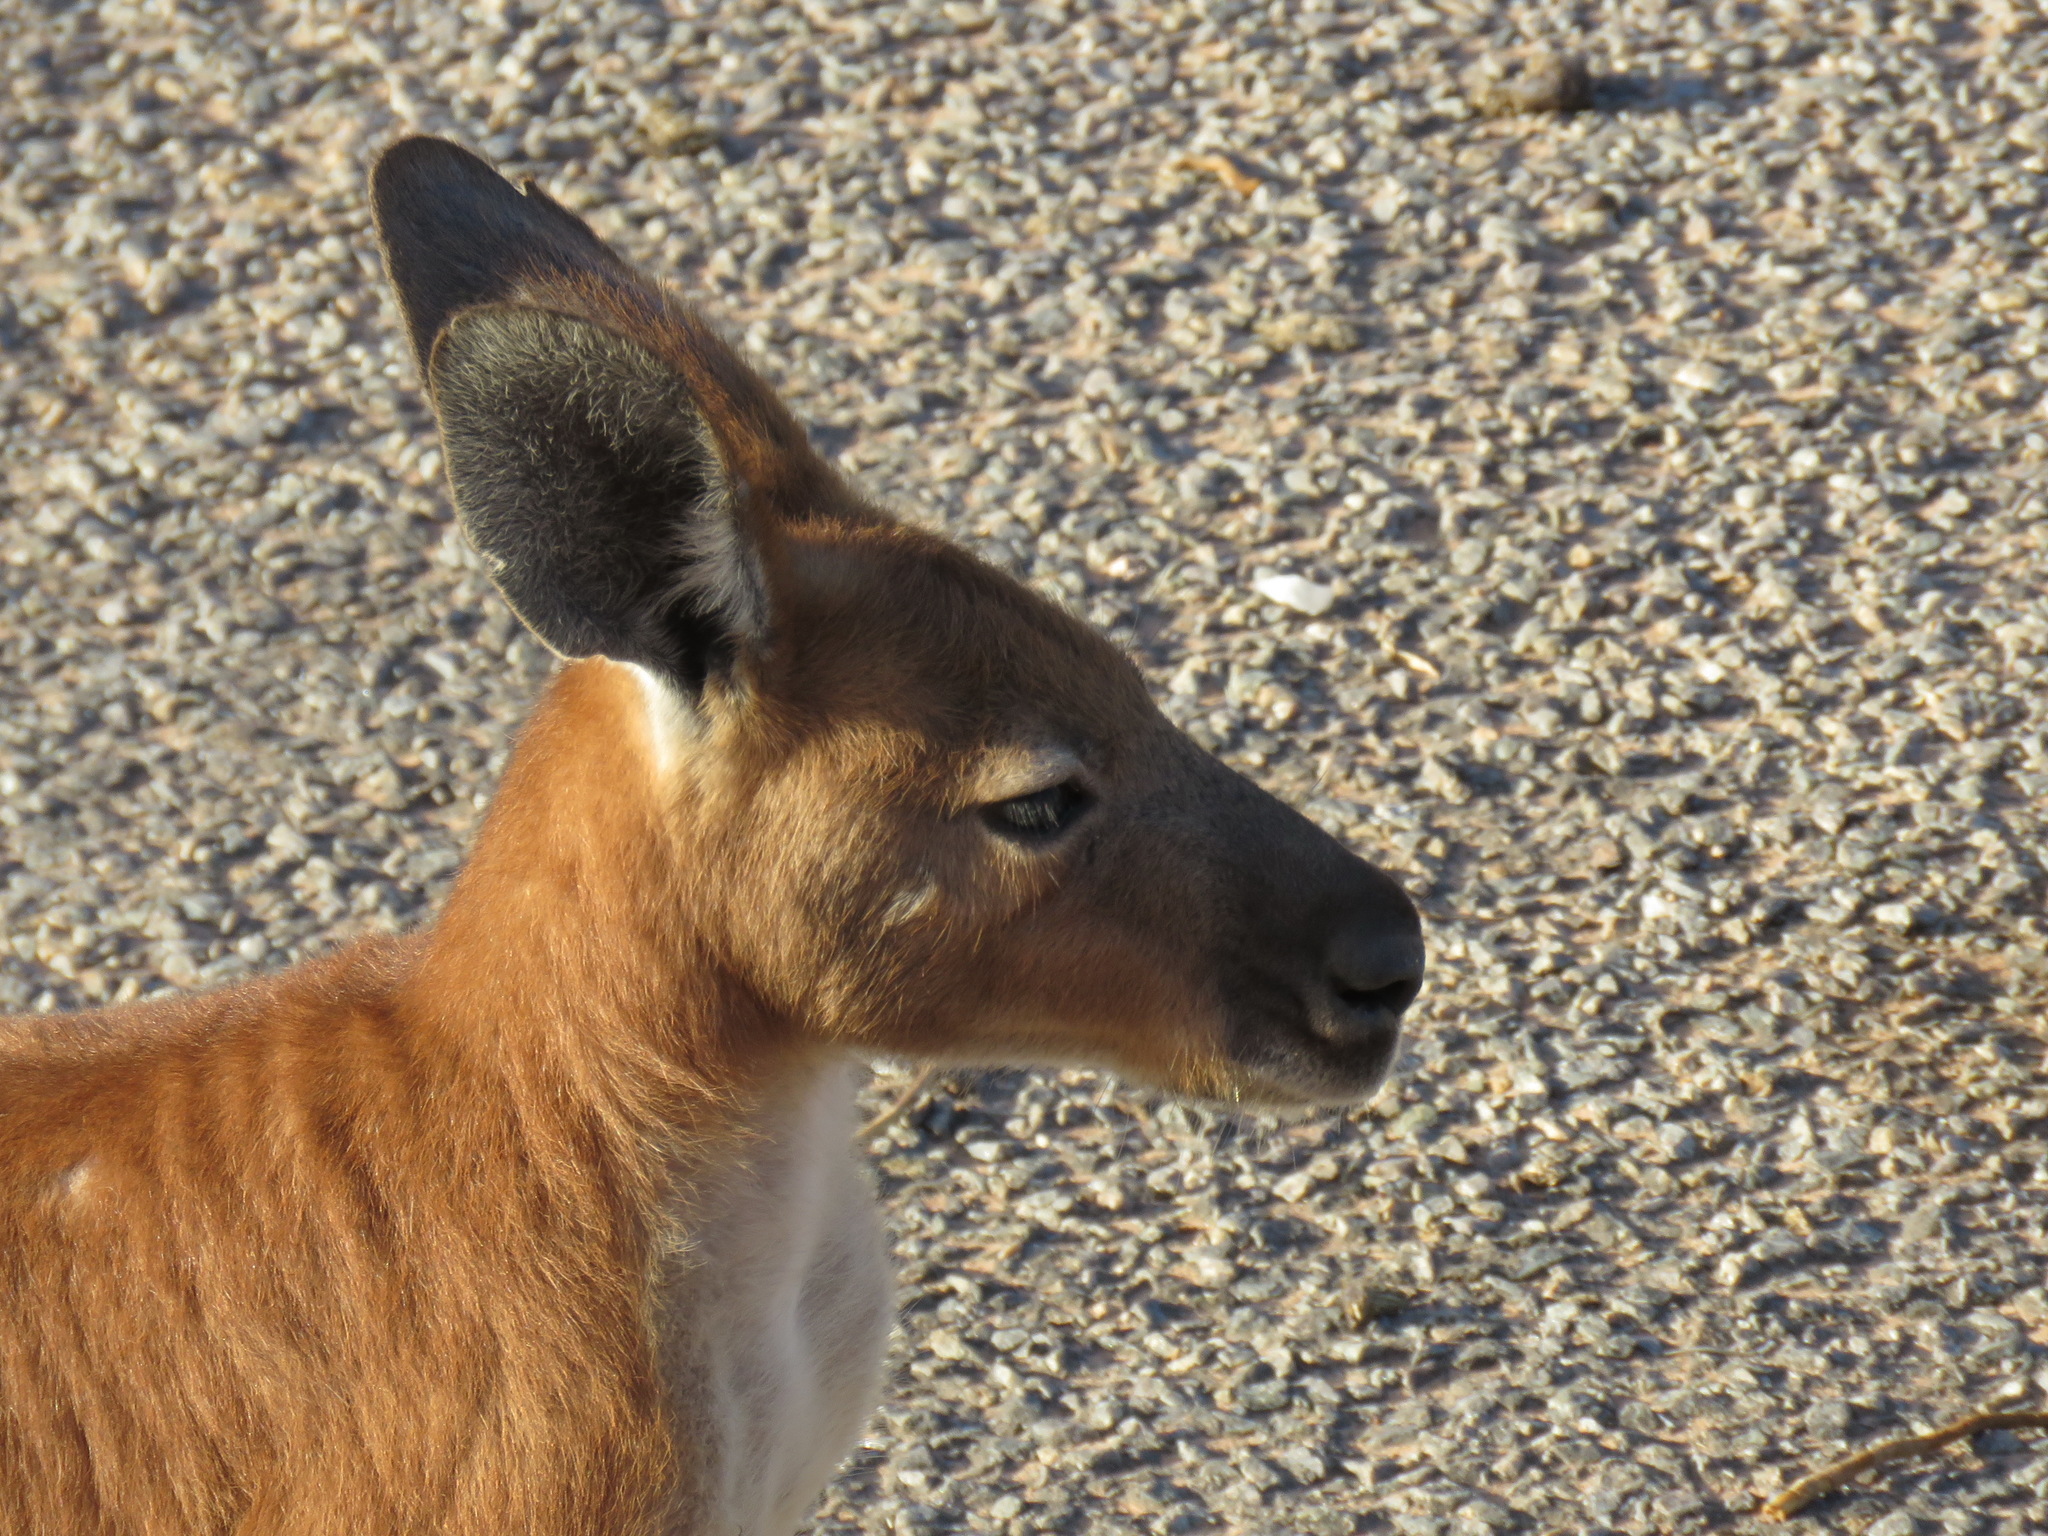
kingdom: Animalia
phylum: Chordata
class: Mammalia
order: Diprotodontia
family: Macropodidae
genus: Macropus
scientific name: Macropus robustus
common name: Eastern wallaroo
